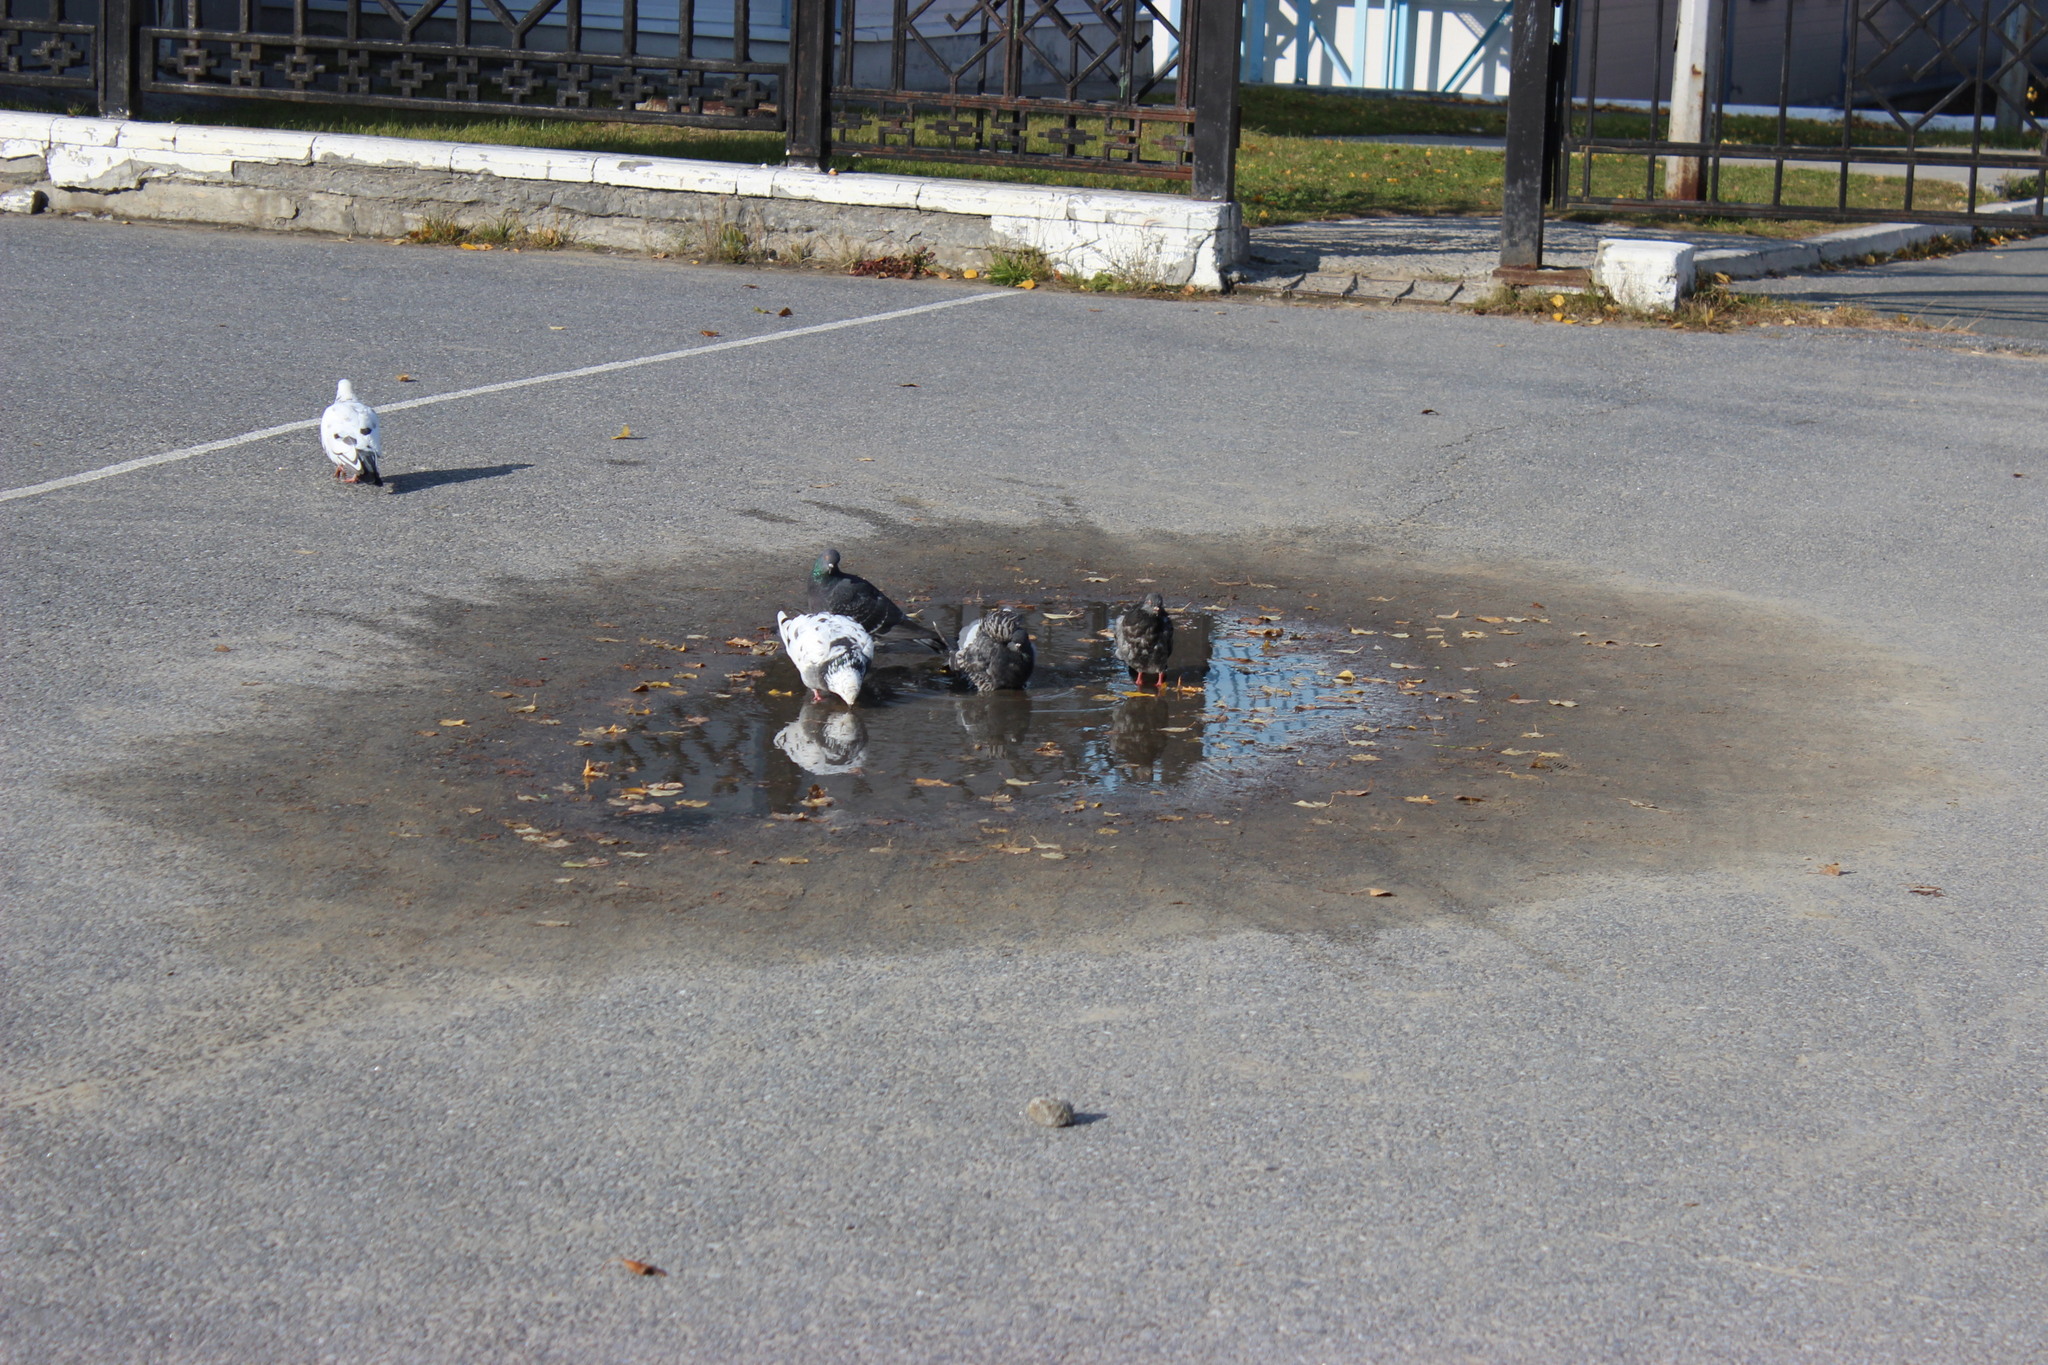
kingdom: Animalia
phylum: Chordata
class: Aves
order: Columbiformes
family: Columbidae
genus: Columba
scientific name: Columba livia
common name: Rock pigeon
